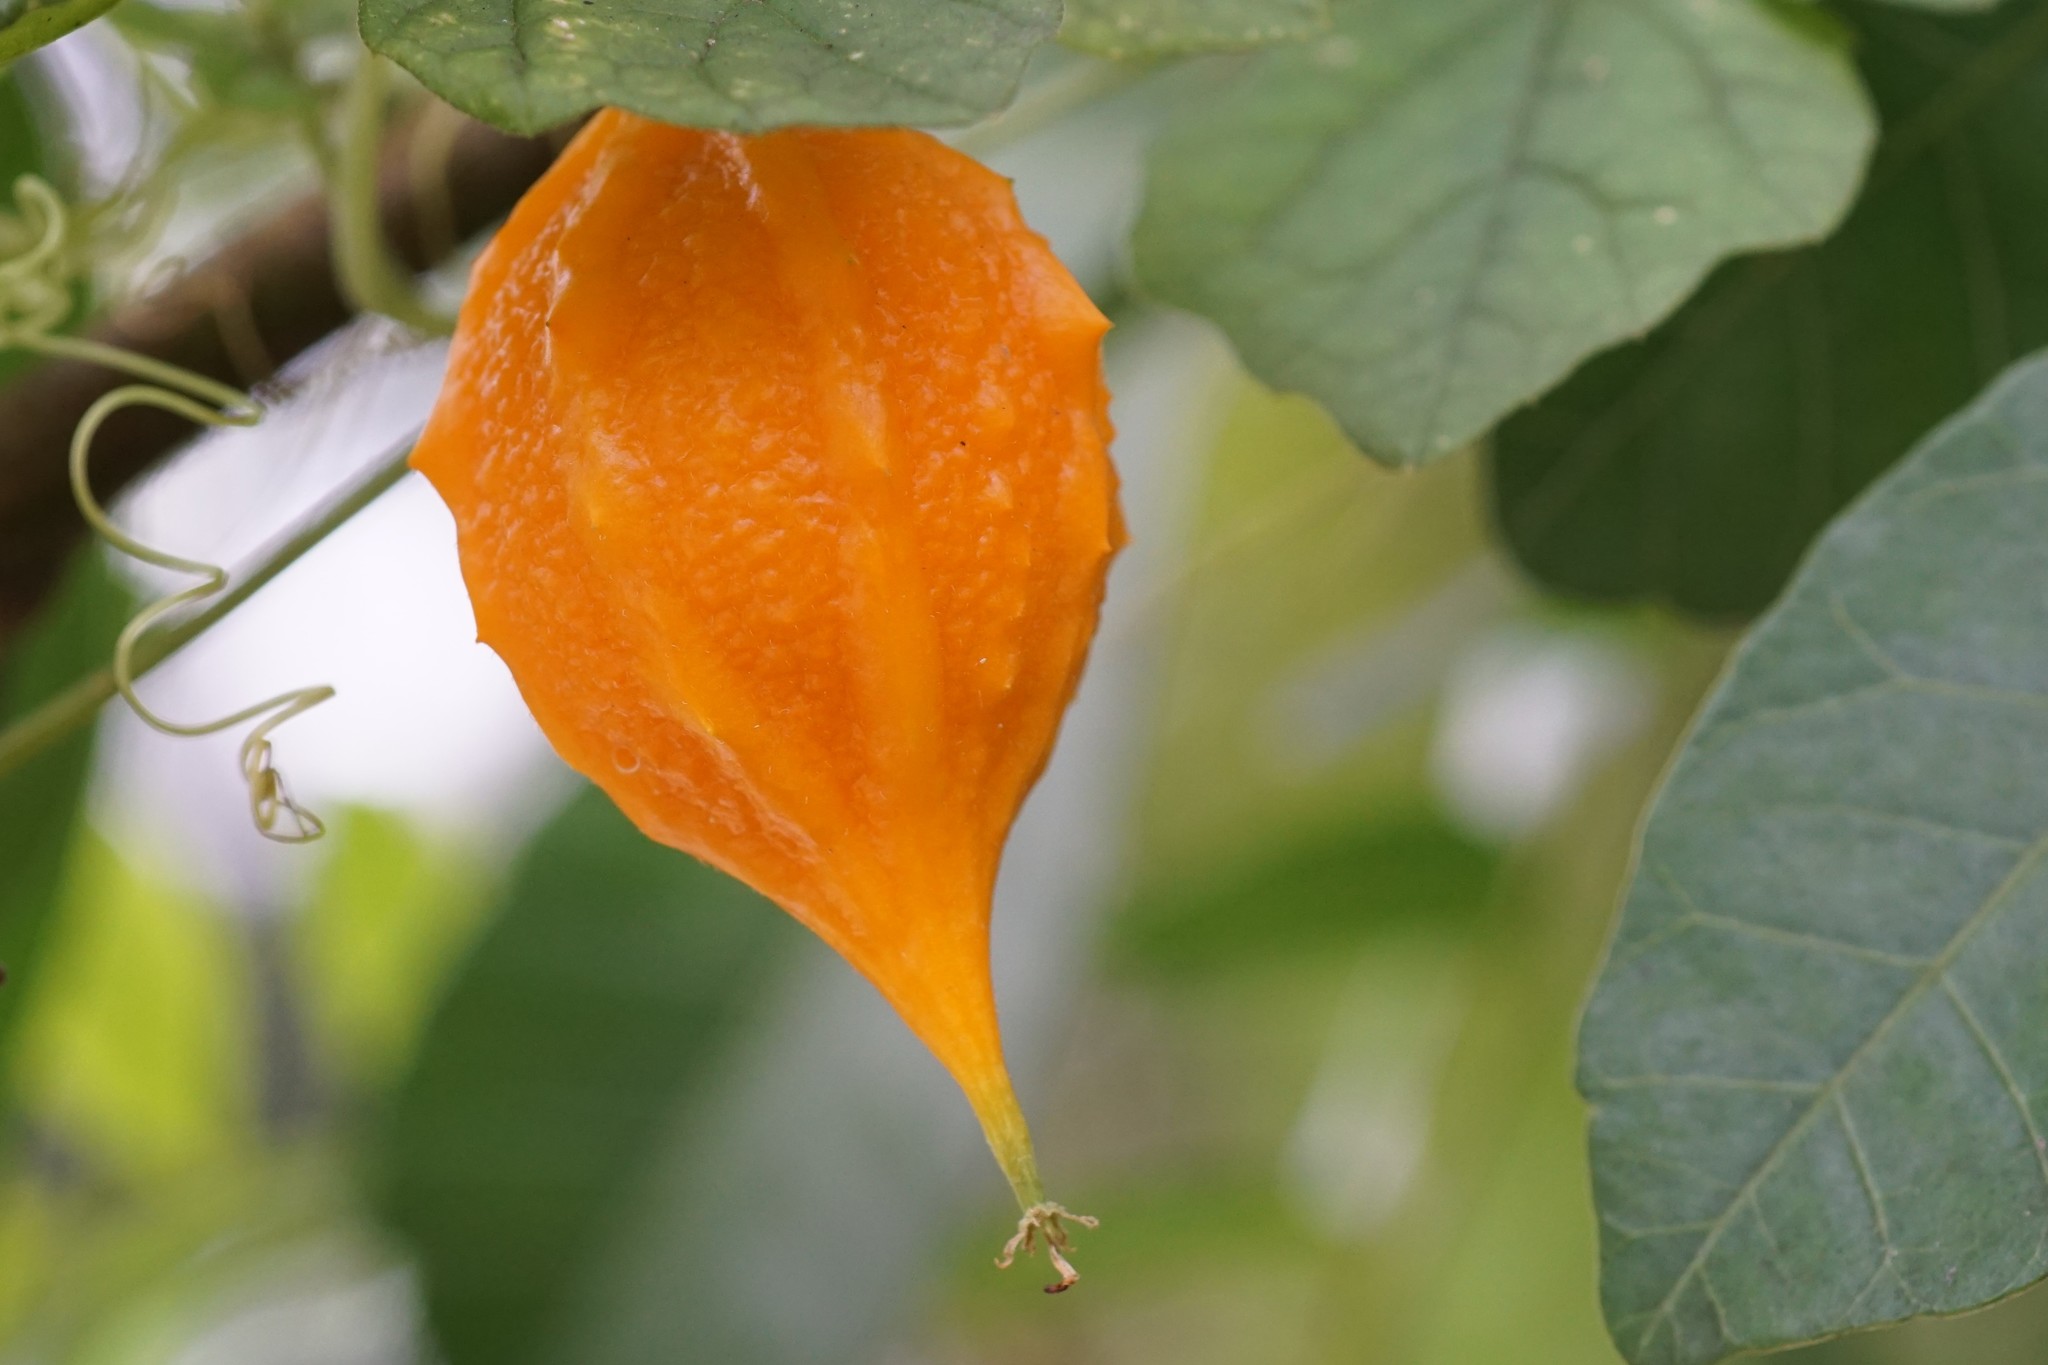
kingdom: Plantae
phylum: Tracheophyta
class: Magnoliopsida
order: Cucurbitales
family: Cucurbitaceae
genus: Momordica
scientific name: Momordica charantia
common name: Balsampear
